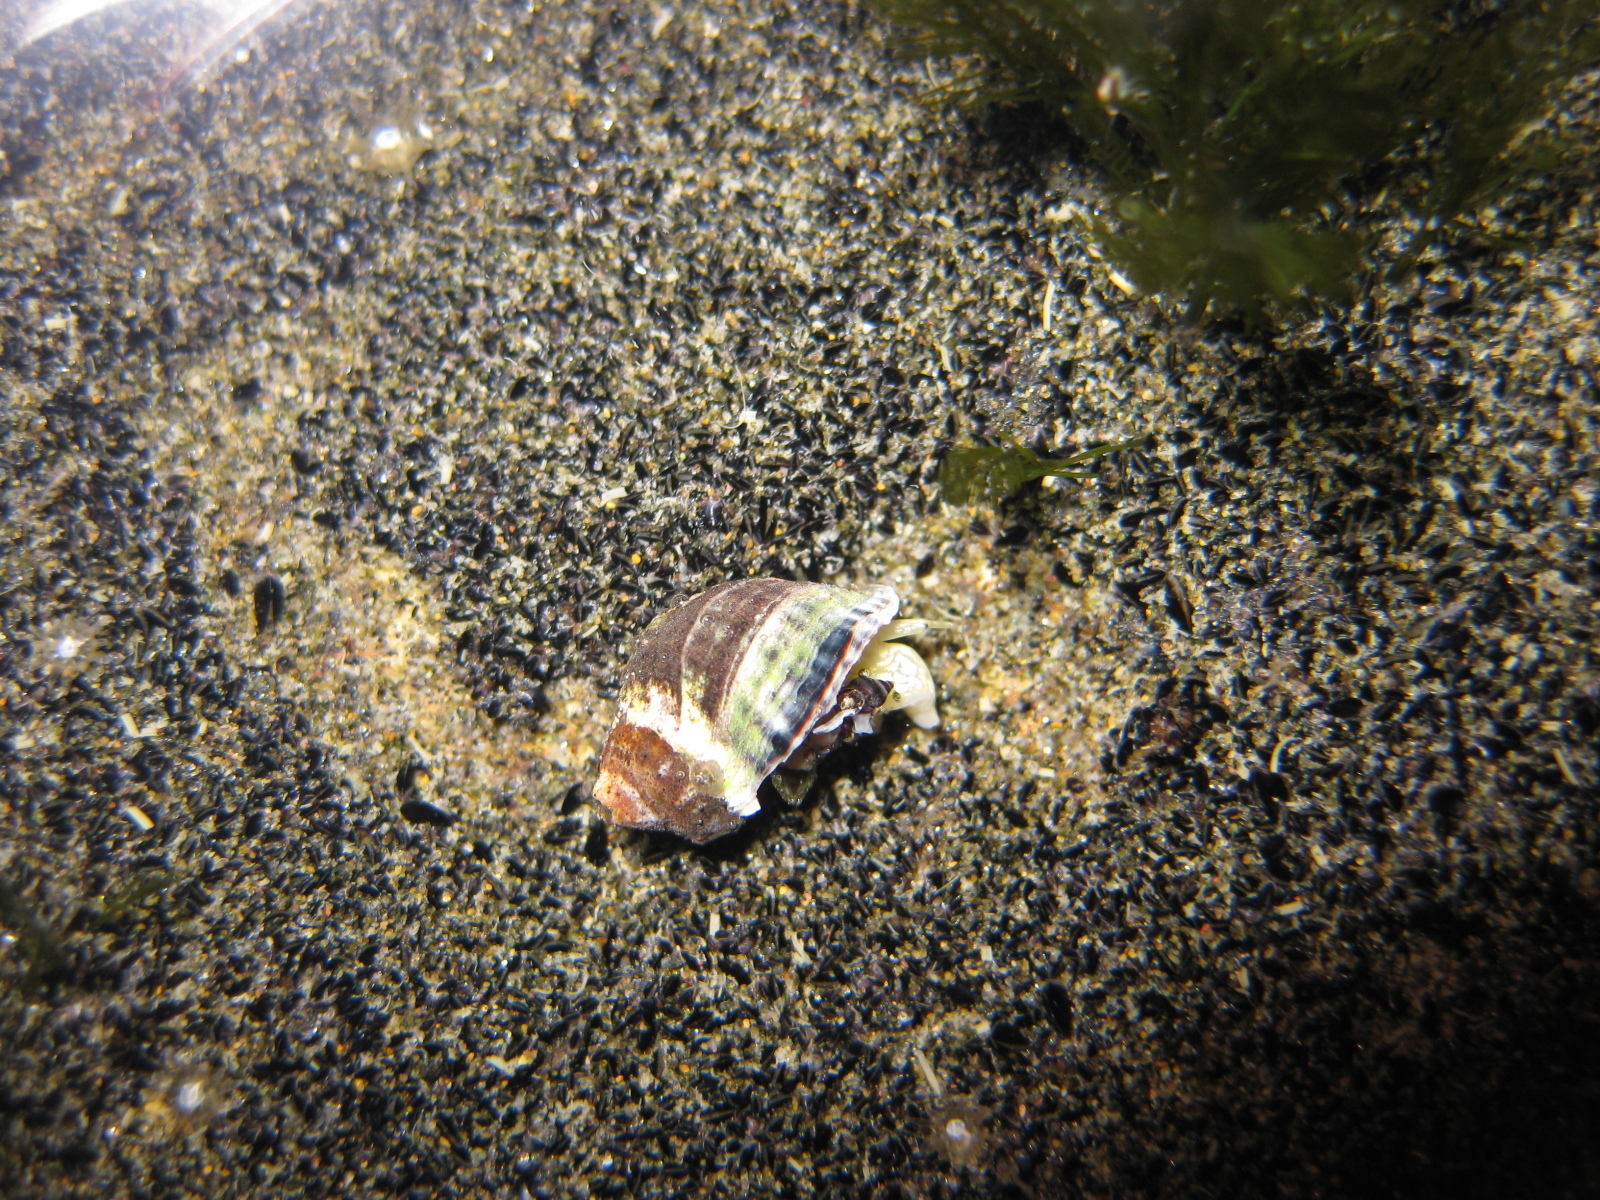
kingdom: Animalia
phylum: Mollusca
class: Gastropoda
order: Neogastropoda
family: Muricidae
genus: Haustrum
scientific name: Haustrum albomarginatum
